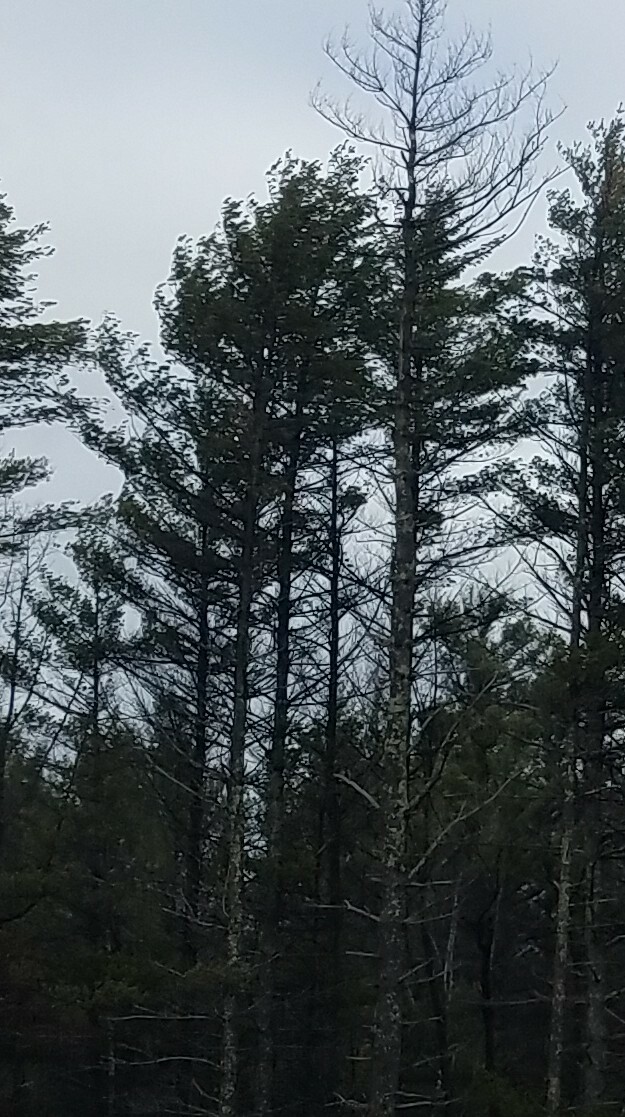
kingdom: Plantae
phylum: Tracheophyta
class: Pinopsida
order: Pinales
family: Pinaceae
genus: Pinus
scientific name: Pinus strobus
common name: Weymouth pine
